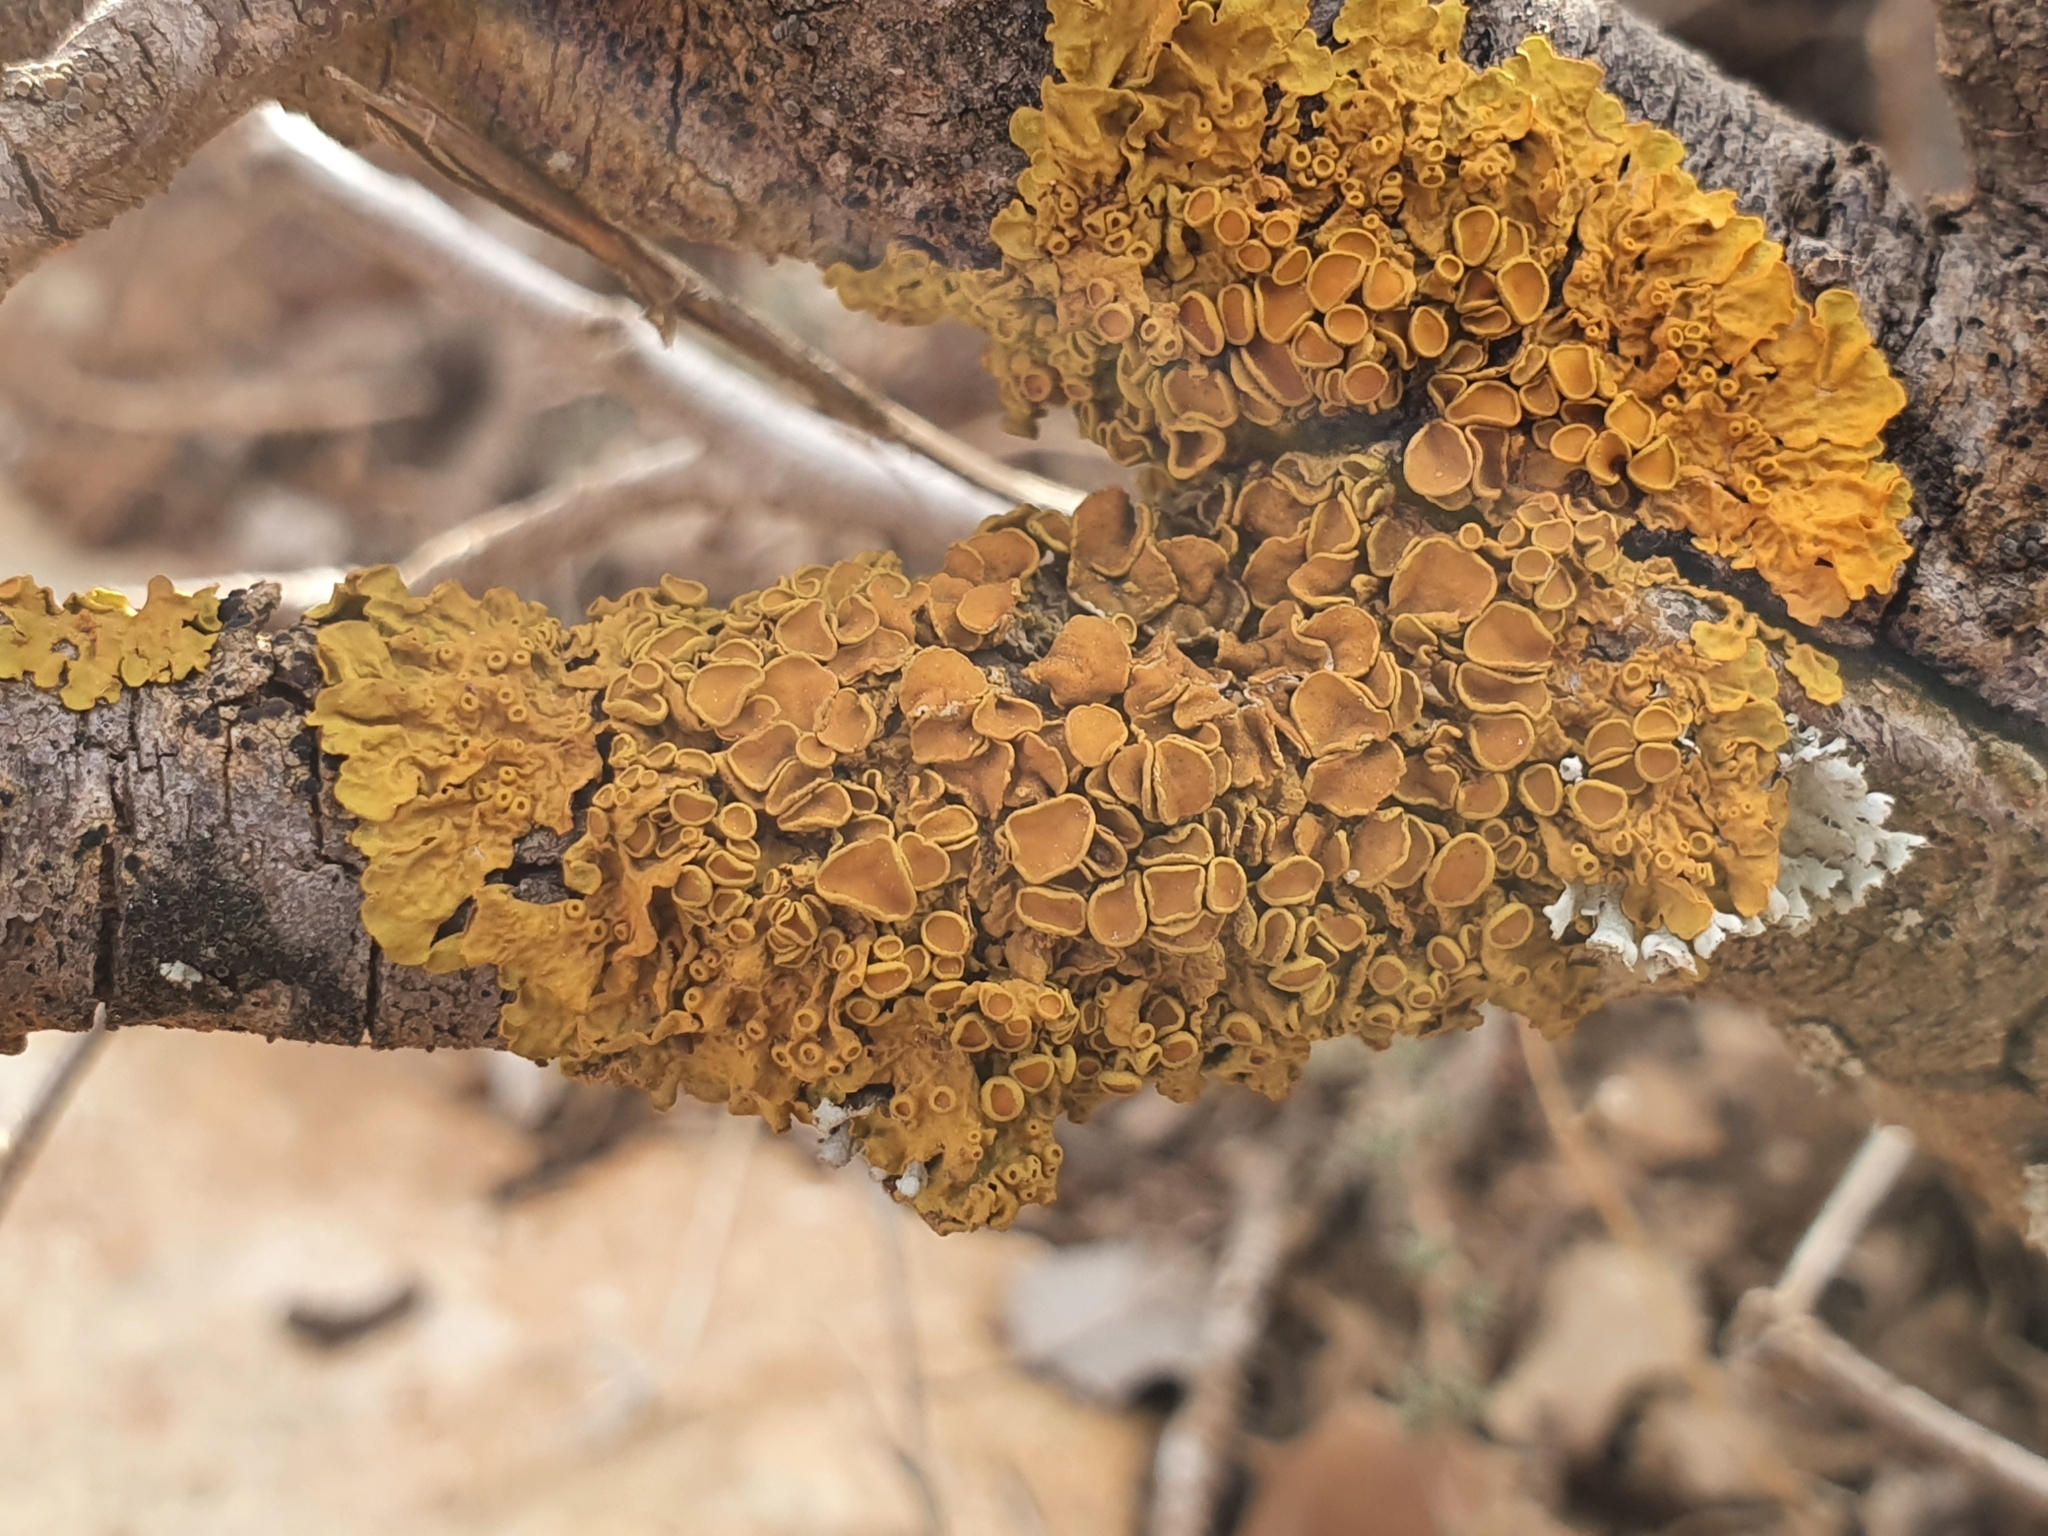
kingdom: Fungi
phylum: Ascomycota
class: Lecanoromycetes
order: Teloschistales
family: Teloschistaceae
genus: Xanthoria
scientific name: Xanthoria parietina
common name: Common orange lichen
